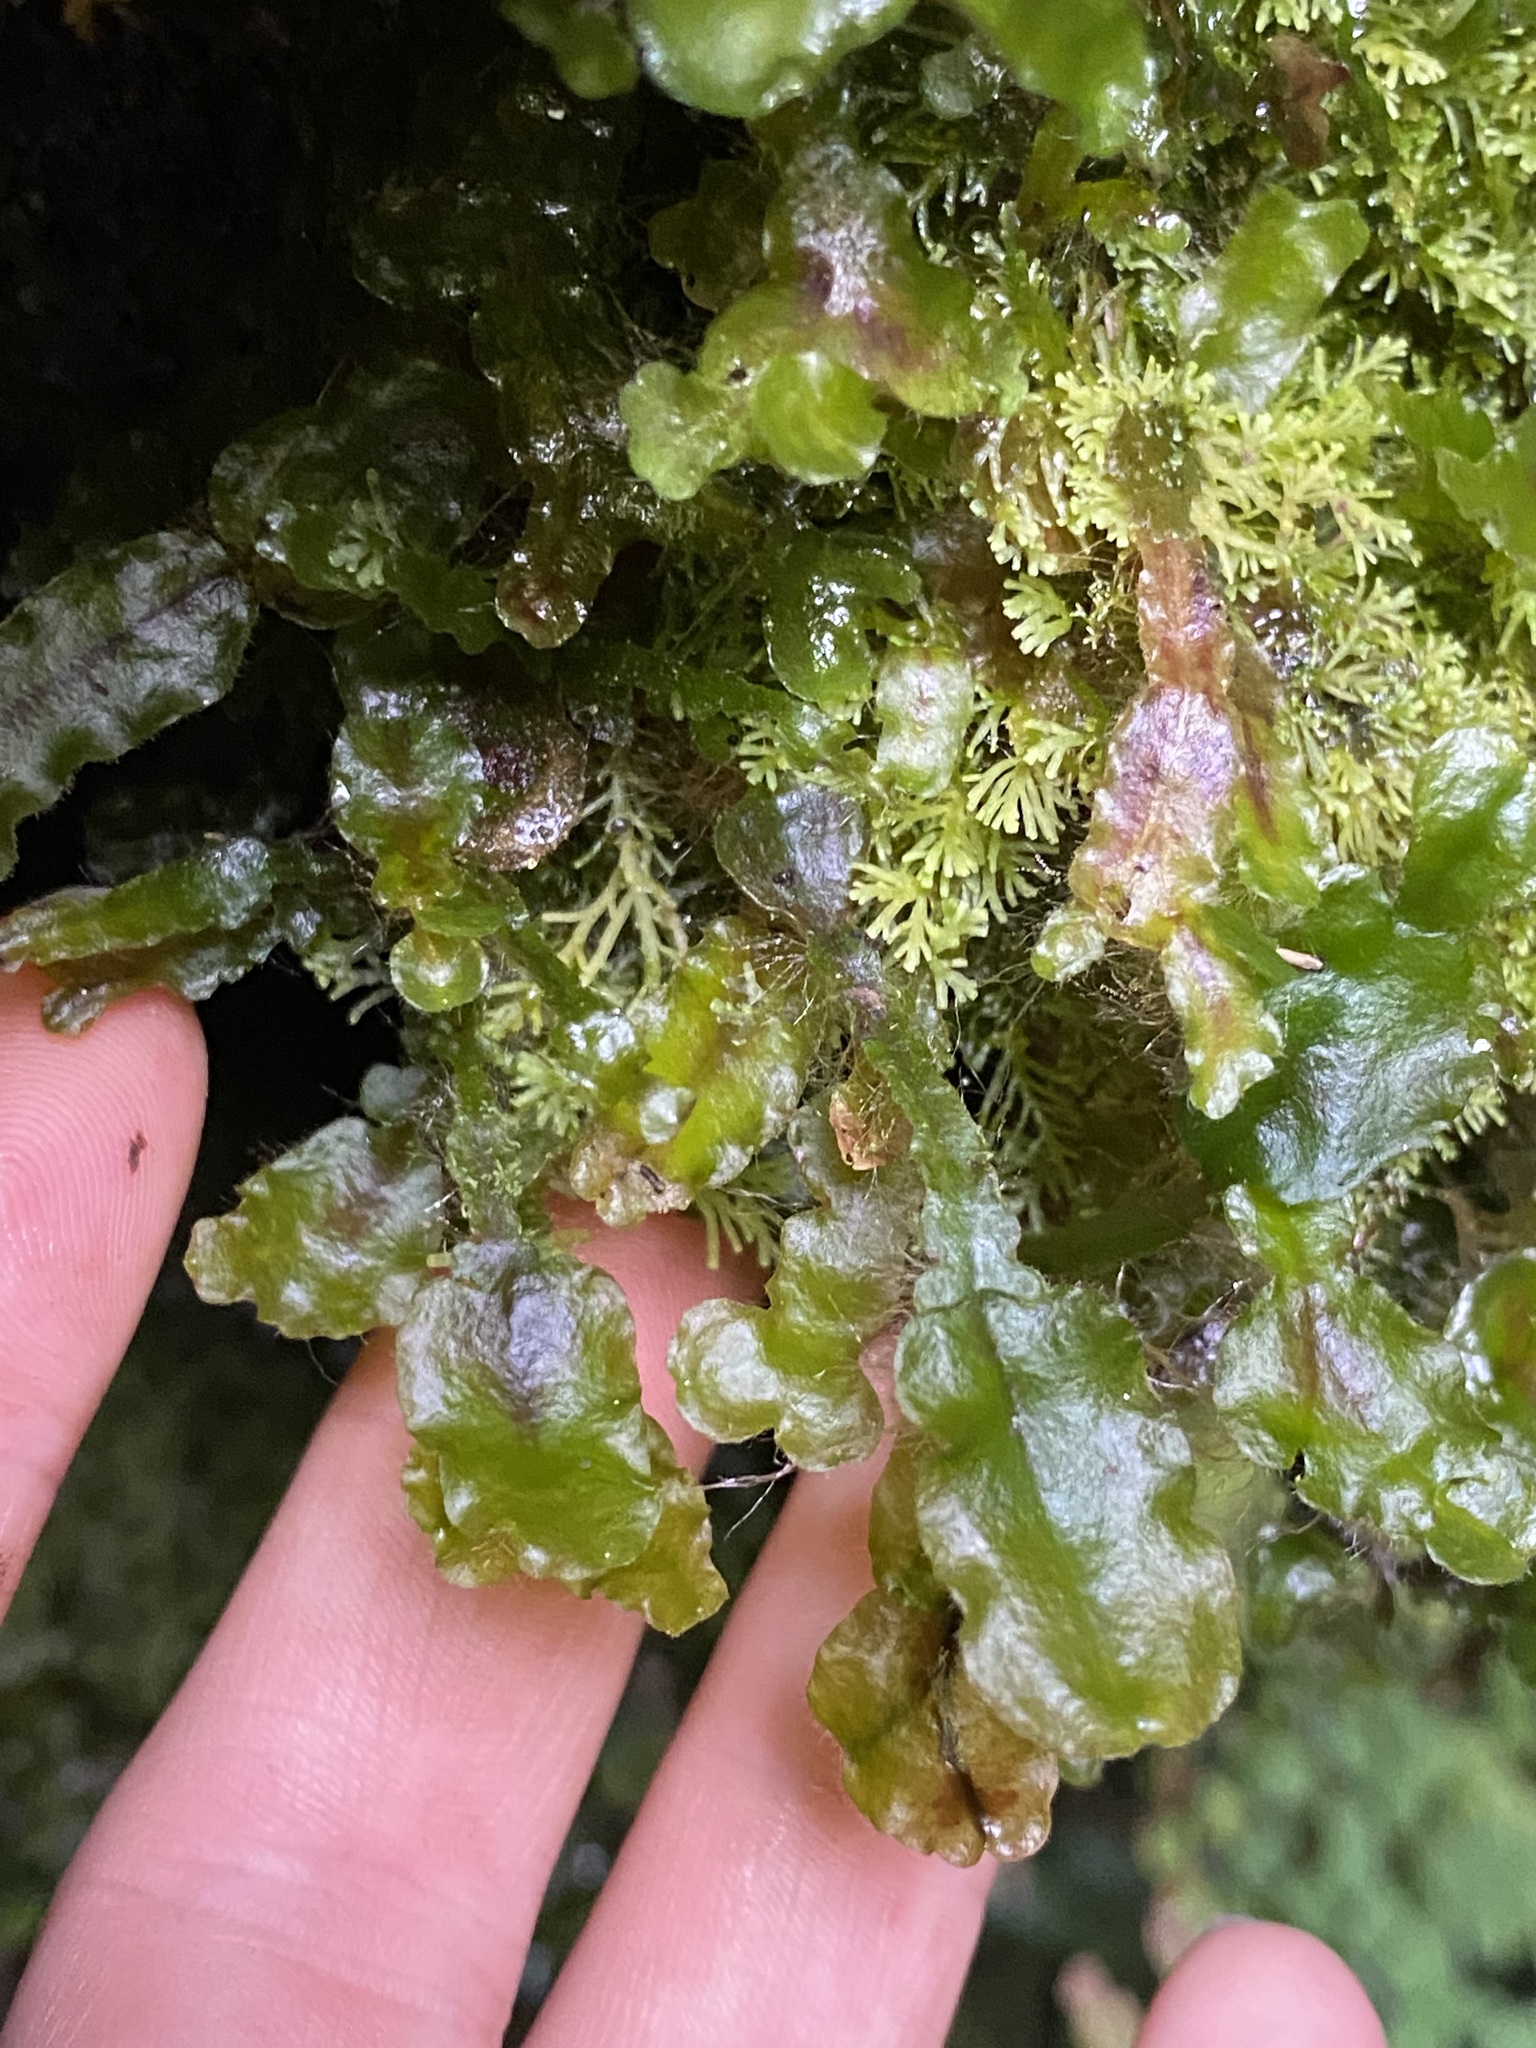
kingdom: Plantae
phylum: Marchantiophyta
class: Marchantiopsida
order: Marchantiales
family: Dumortieraceae
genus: Dumortiera
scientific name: Dumortiera hirsuta
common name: Dumortier's liverwort
